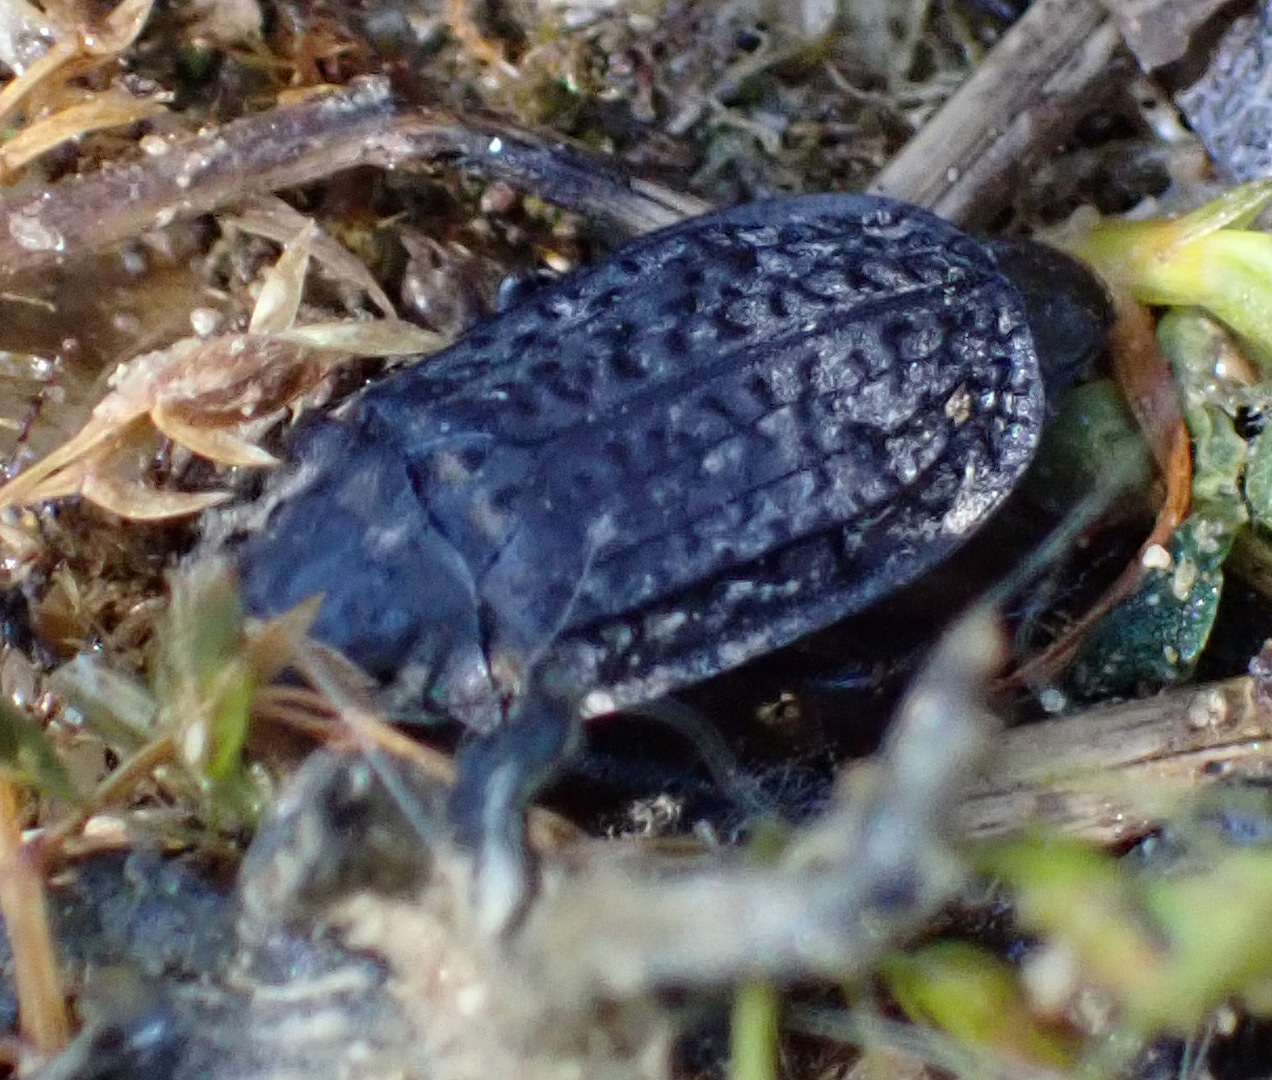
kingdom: Animalia
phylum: Arthropoda
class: Insecta
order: Coleoptera
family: Staphylinidae
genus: Thanatophilus
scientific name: Thanatophilus rugosus
